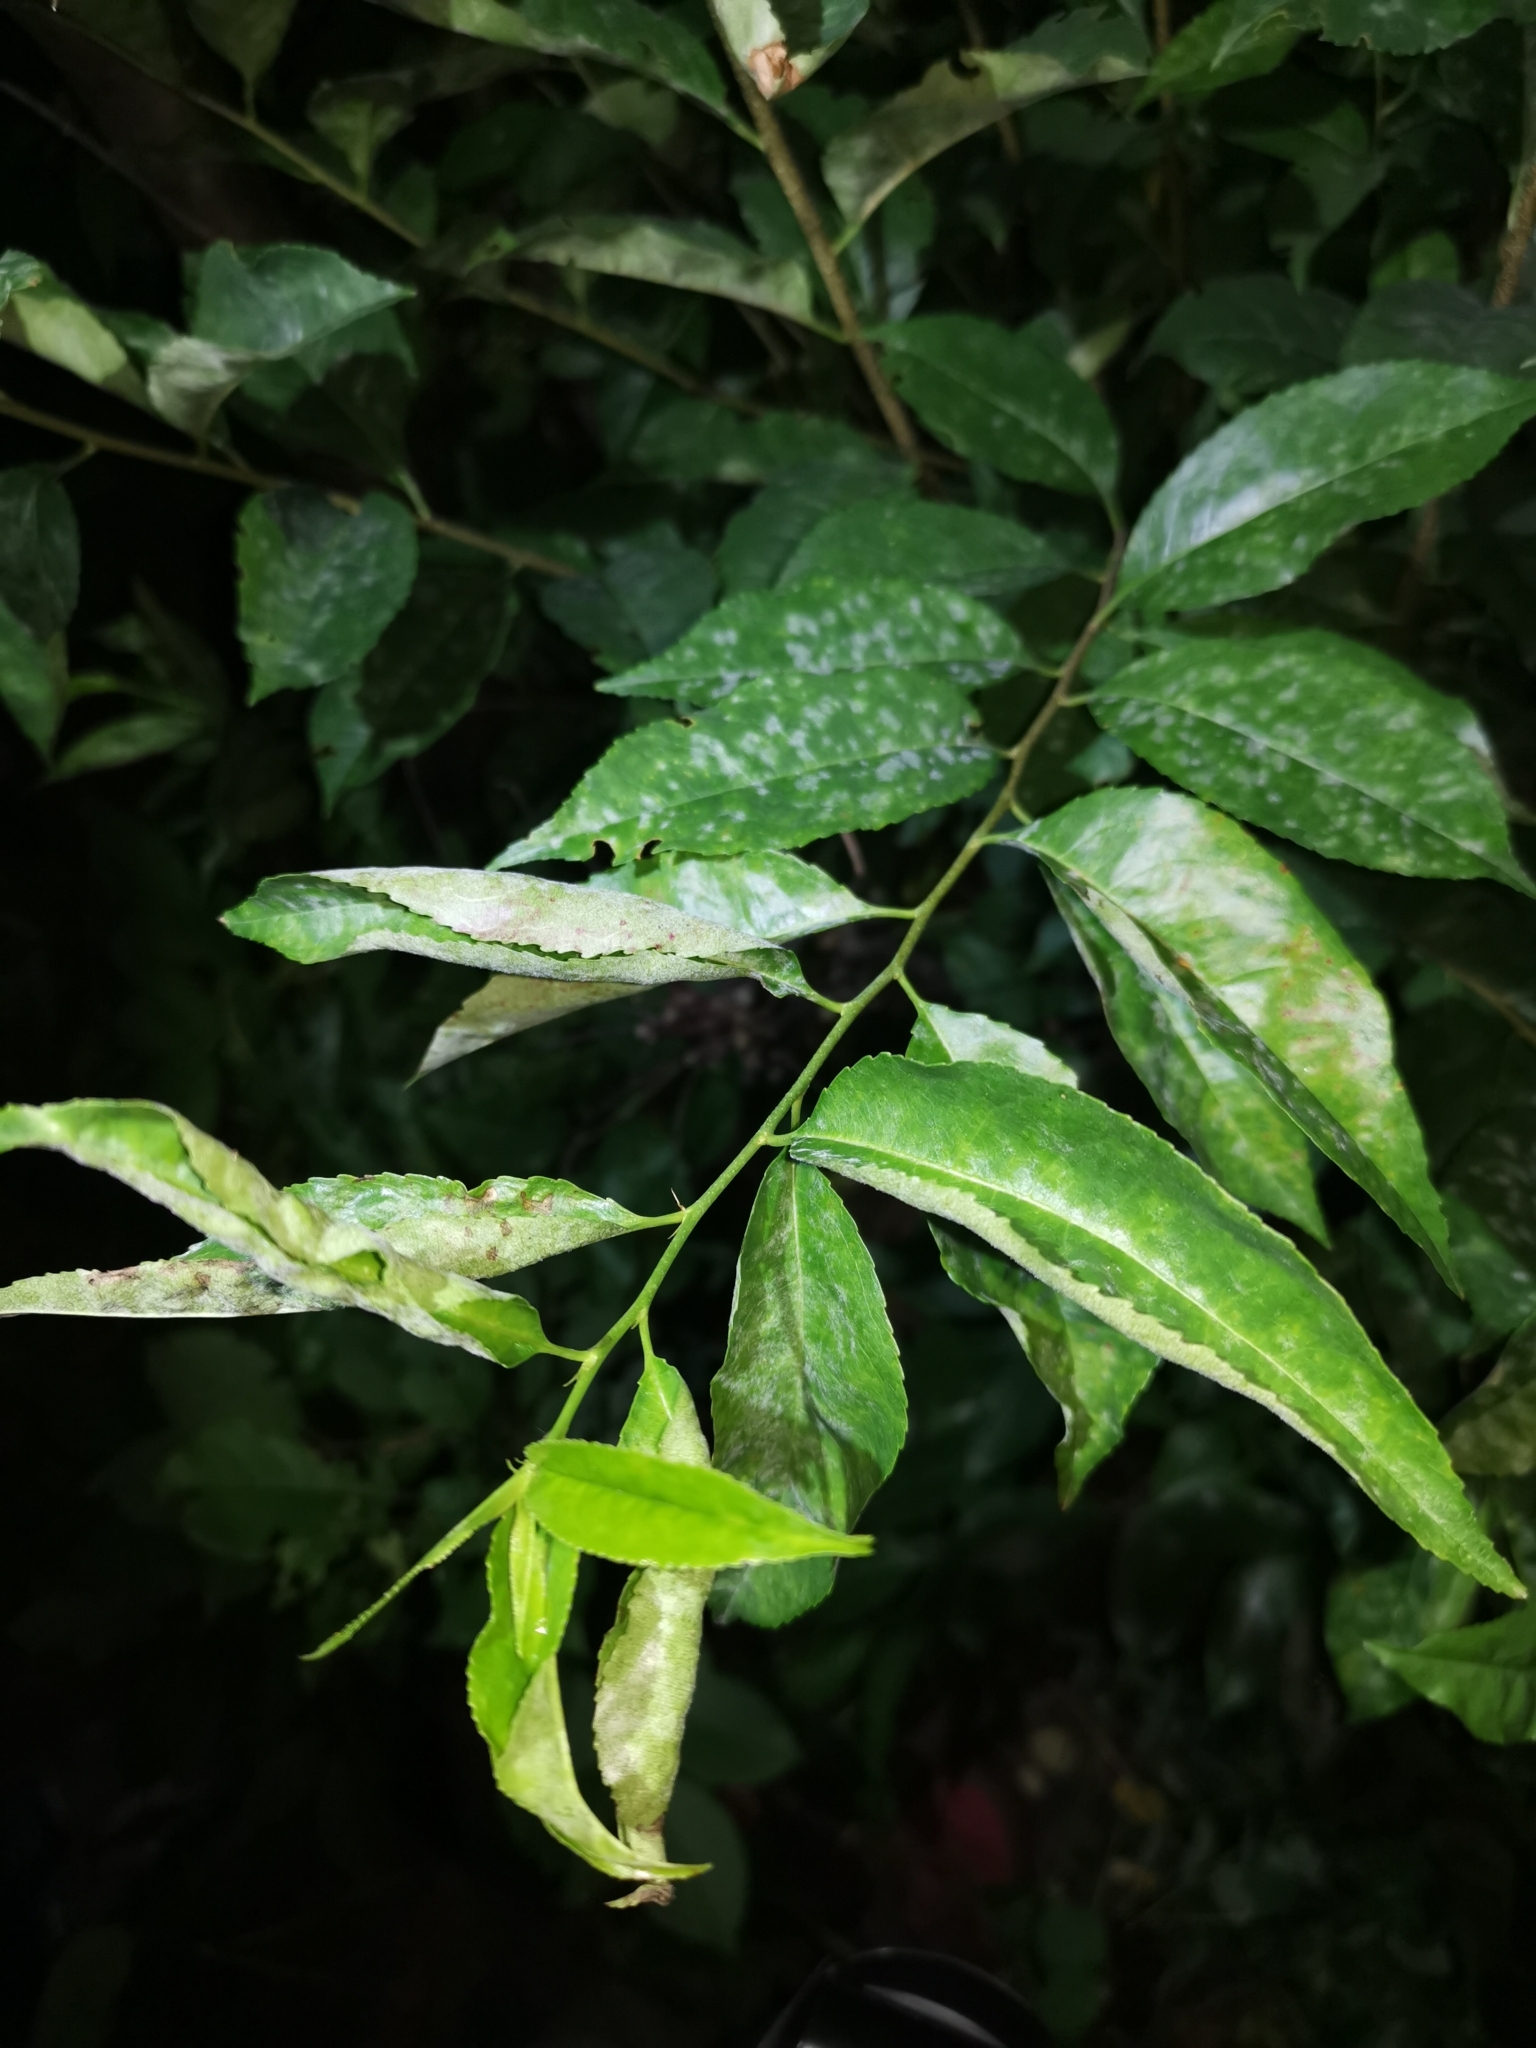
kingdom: Plantae
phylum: Tracheophyta
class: Magnoliopsida
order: Rosales
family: Rosaceae
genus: Prunus
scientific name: Prunus serotina
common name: Black cherry
